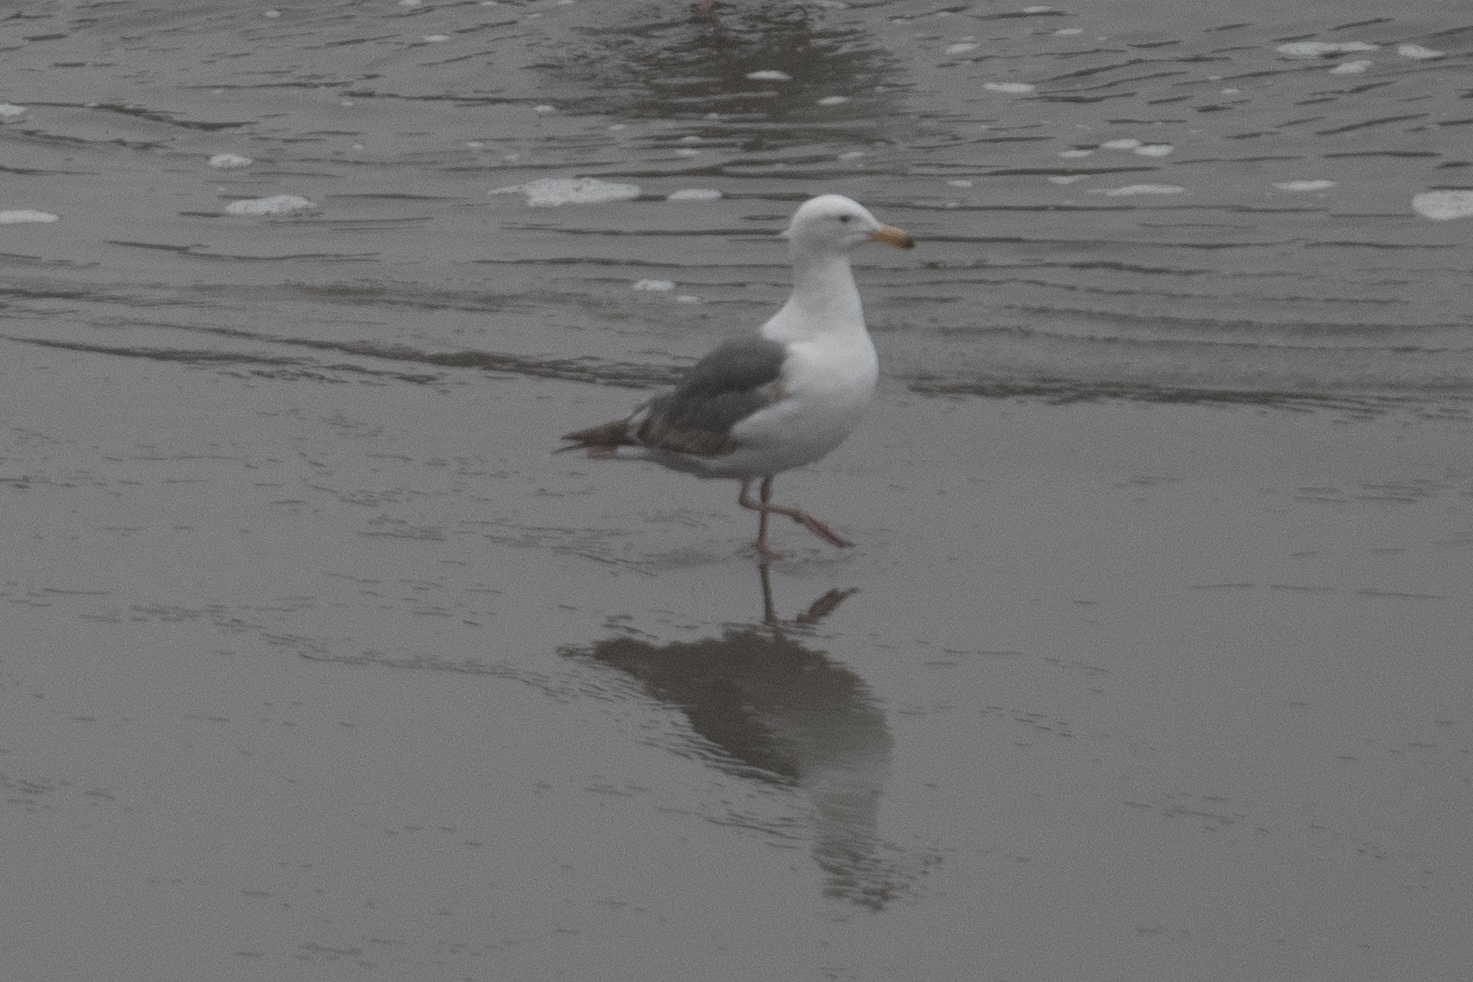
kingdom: Animalia
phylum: Chordata
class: Aves
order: Charadriiformes
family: Laridae
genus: Larus
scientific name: Larus occidentalis
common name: Western gull
